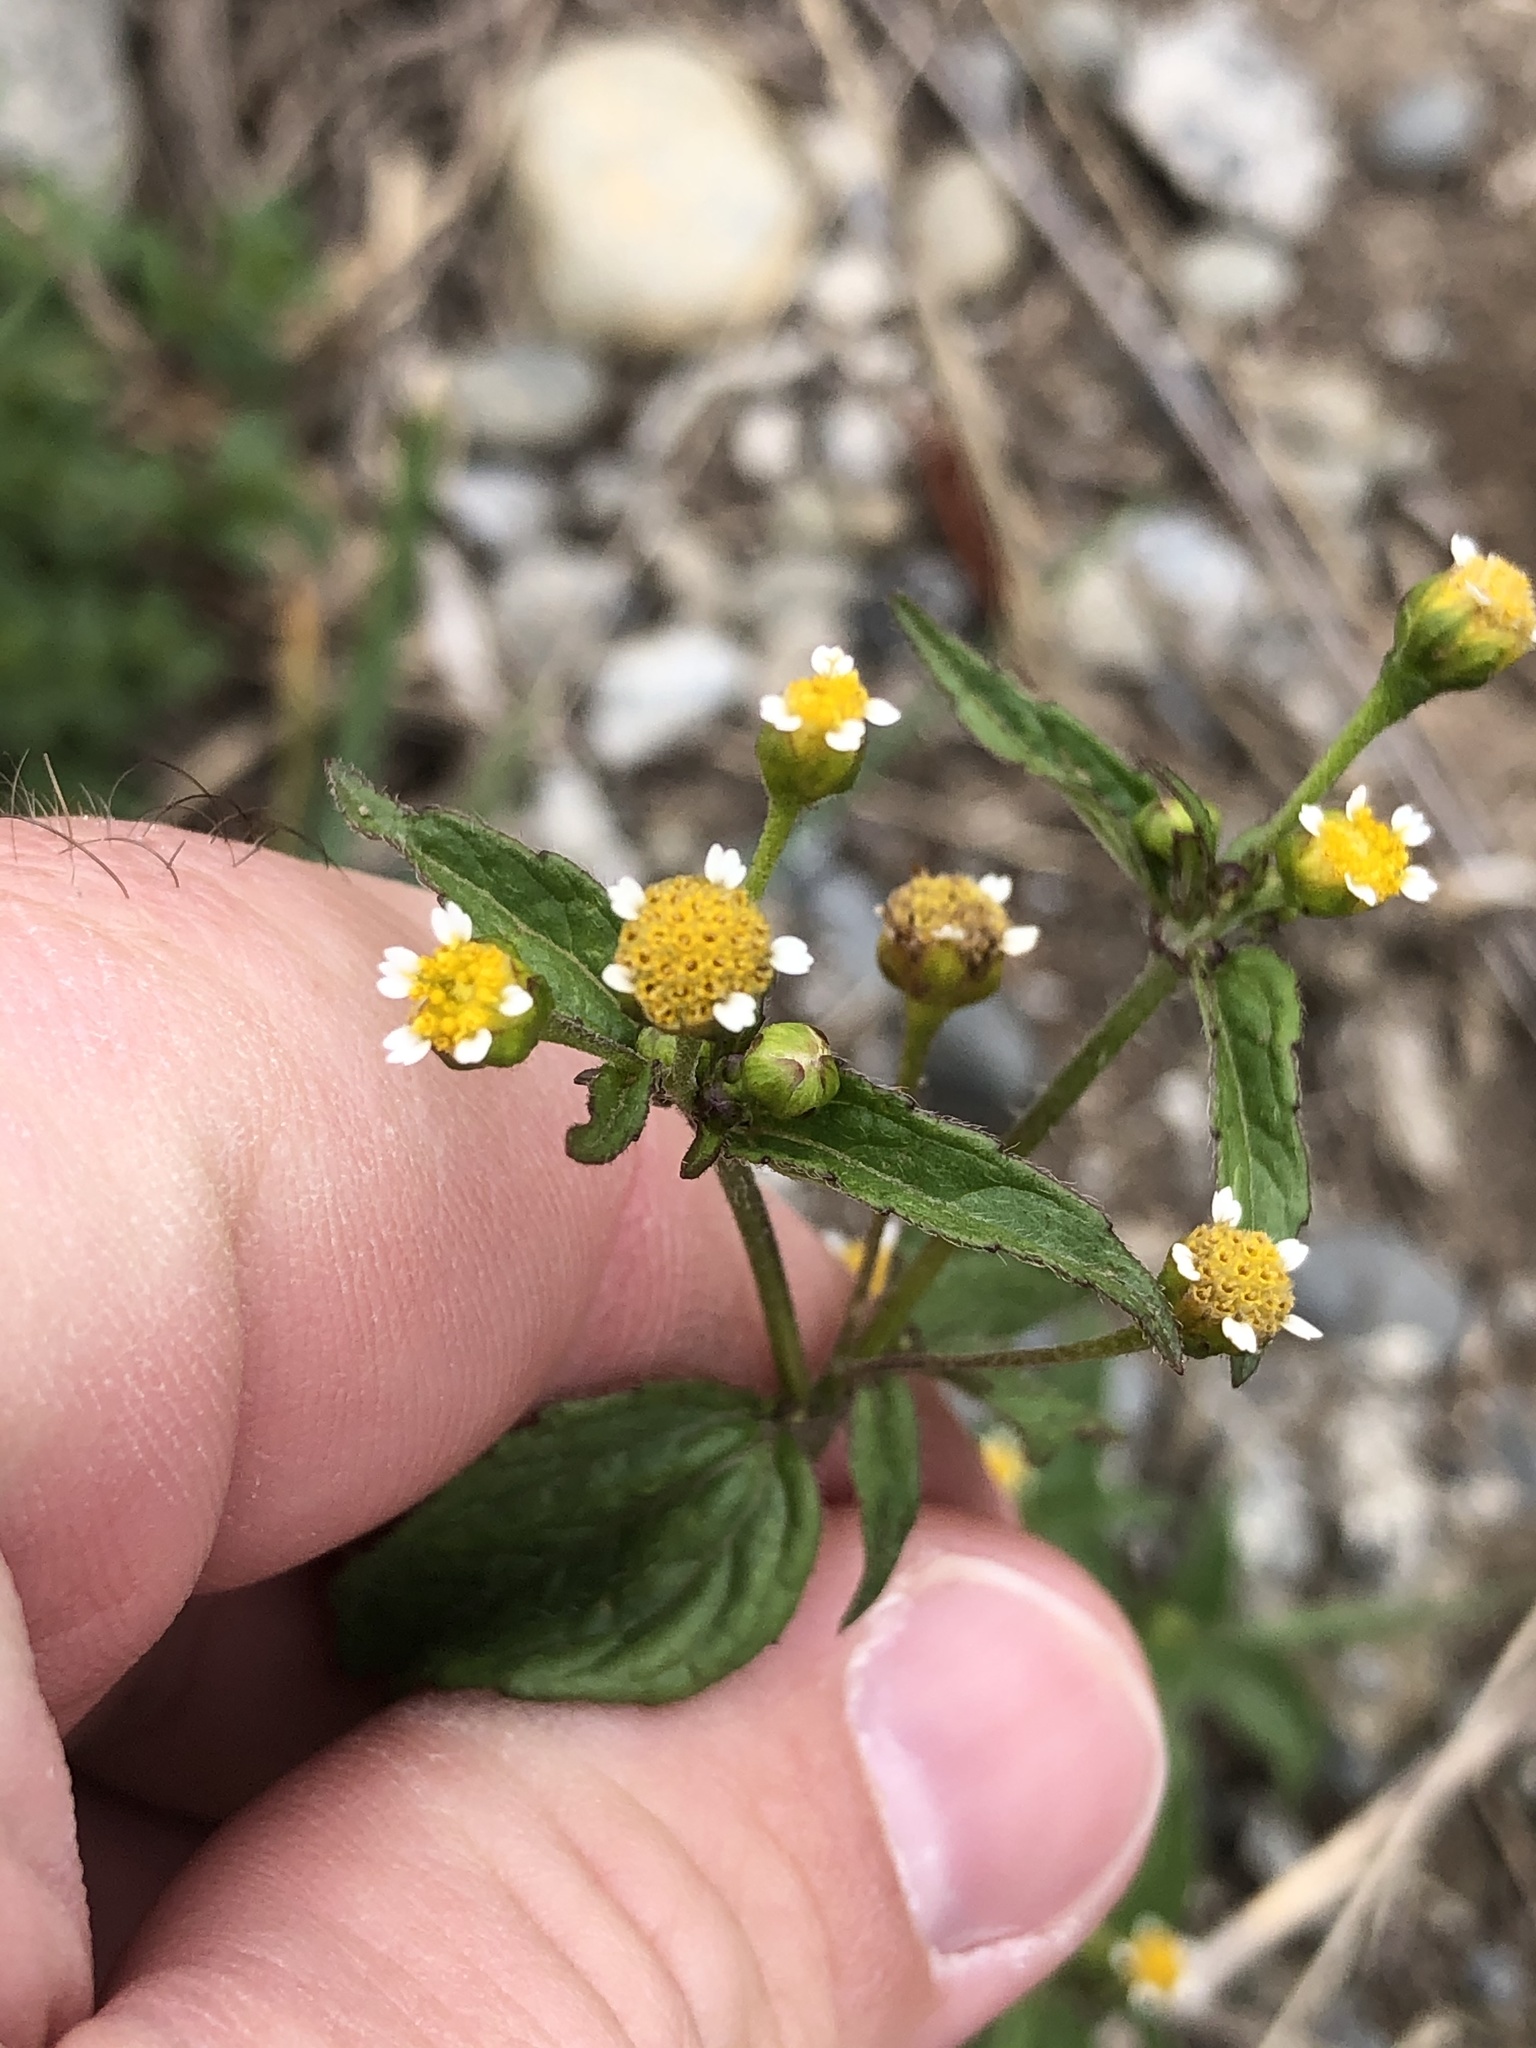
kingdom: Plantae
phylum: Tracheophyta
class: Magnoliopsida
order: Asterales
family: Asteraceae
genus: Galinsoga
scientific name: Galinsoga quadriradiata
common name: Shaggy soldier
